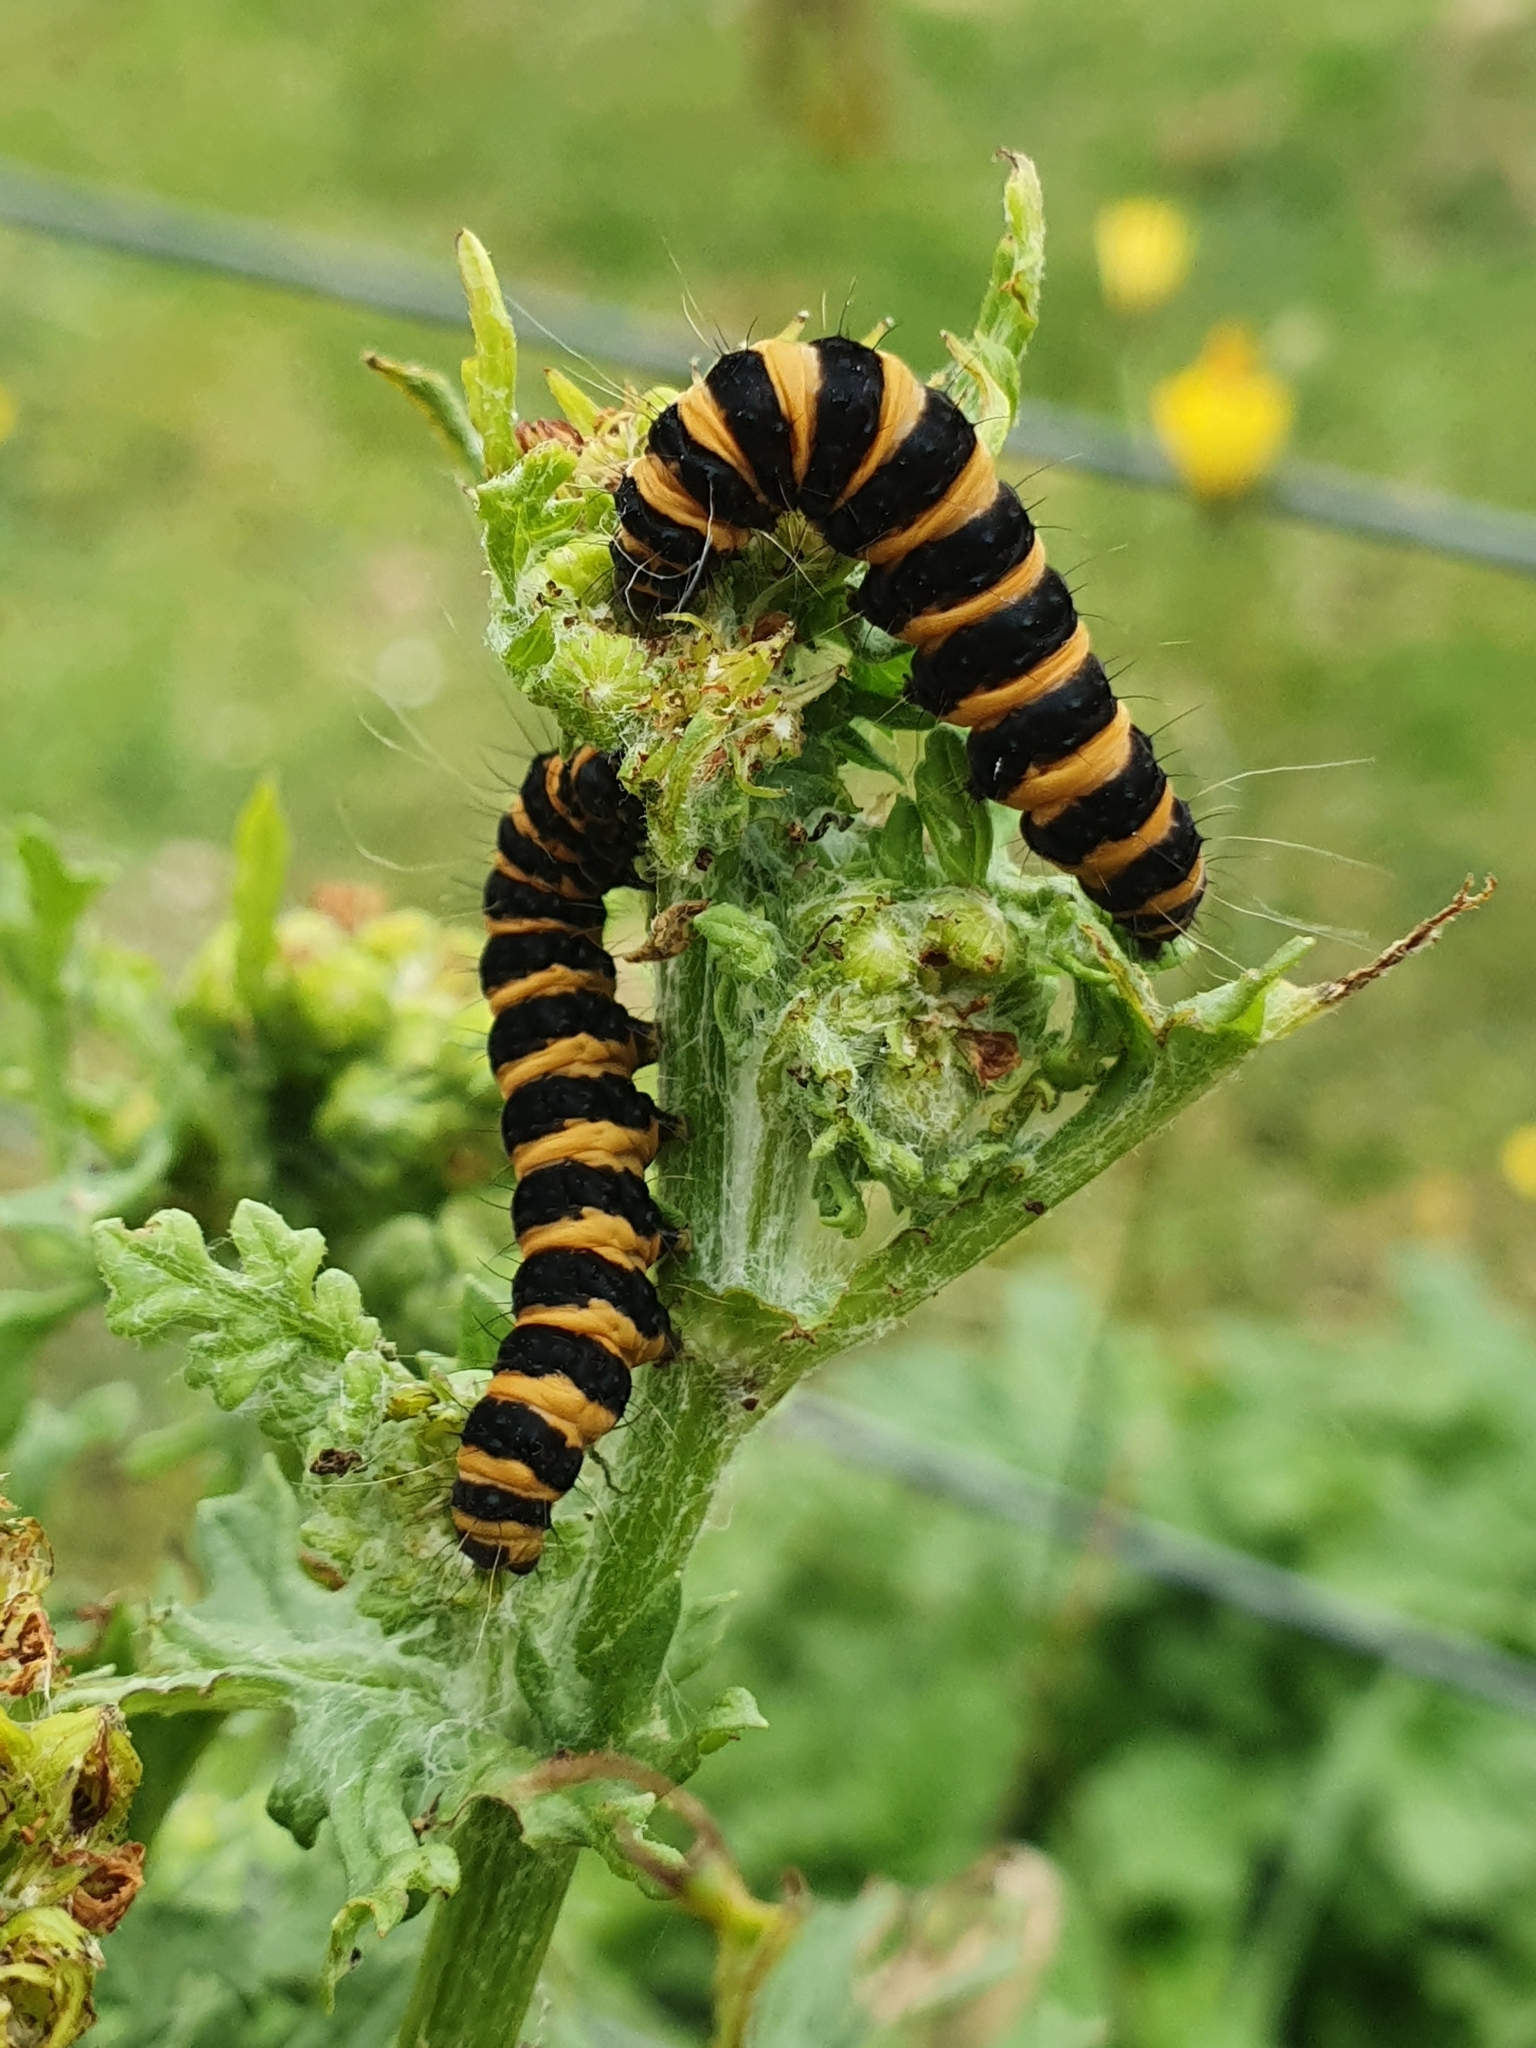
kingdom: Animalia
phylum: Arthropoda
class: Insecta
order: Lepidoptera
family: Erebidae
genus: Tyria
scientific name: Tyria jacobaeae
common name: Cinnabar
